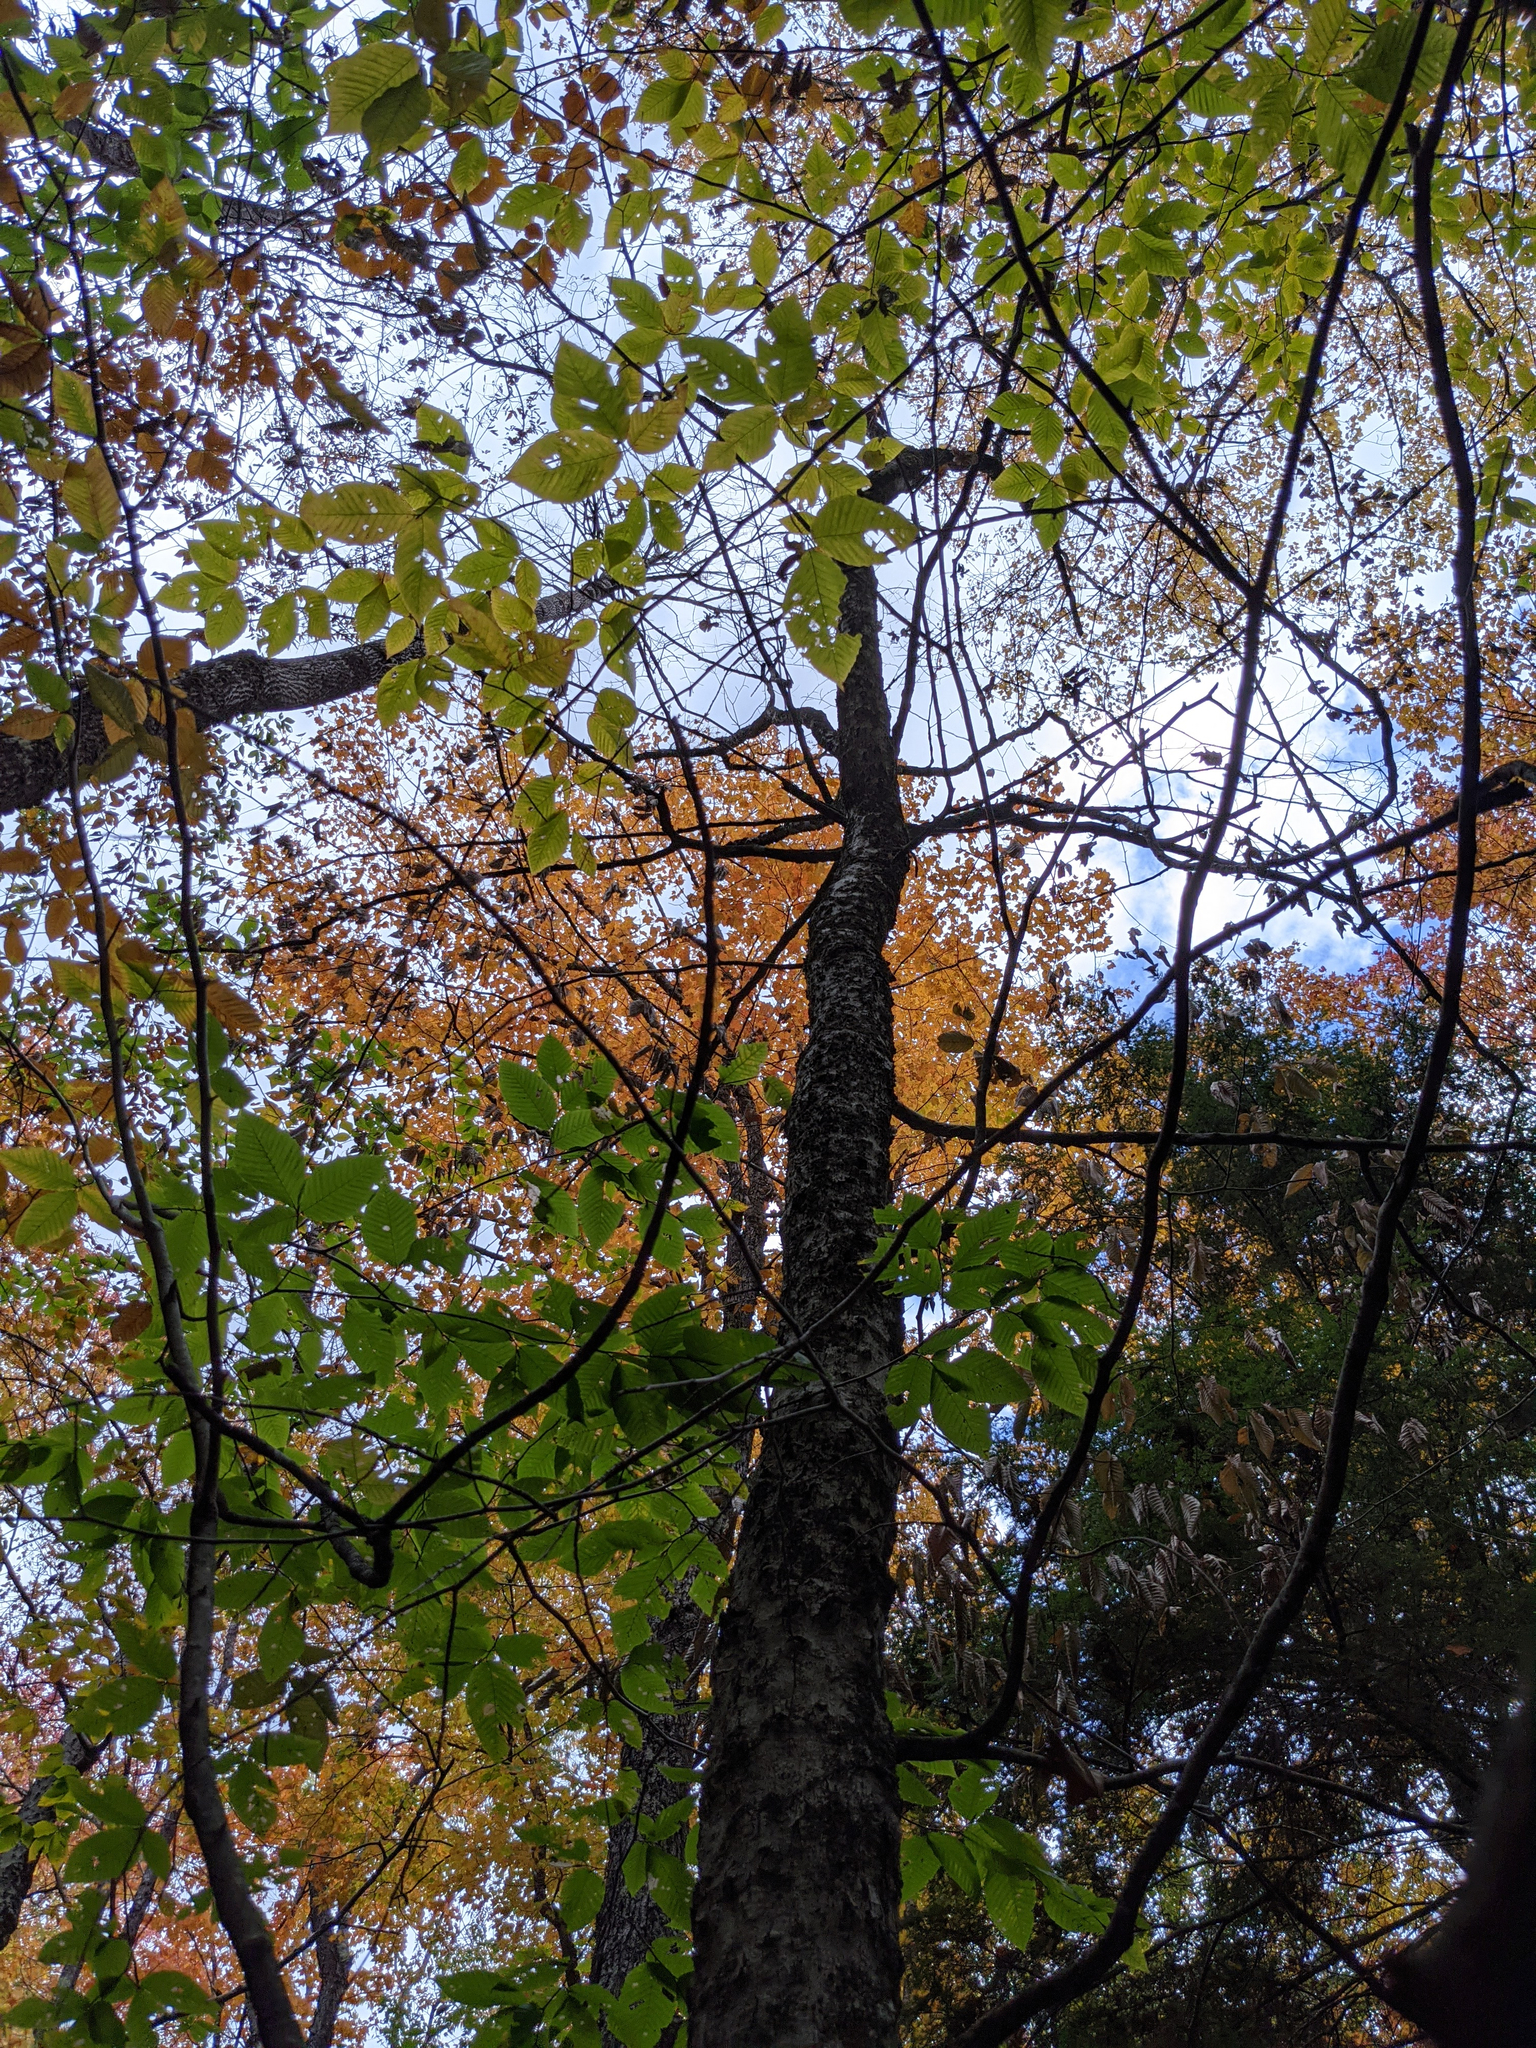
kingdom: Plantae
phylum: Tracheophyta
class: Magnoliopsida
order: Fagales
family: Fagaceae
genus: Fagus
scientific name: Fagus grandifolia
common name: American beech
